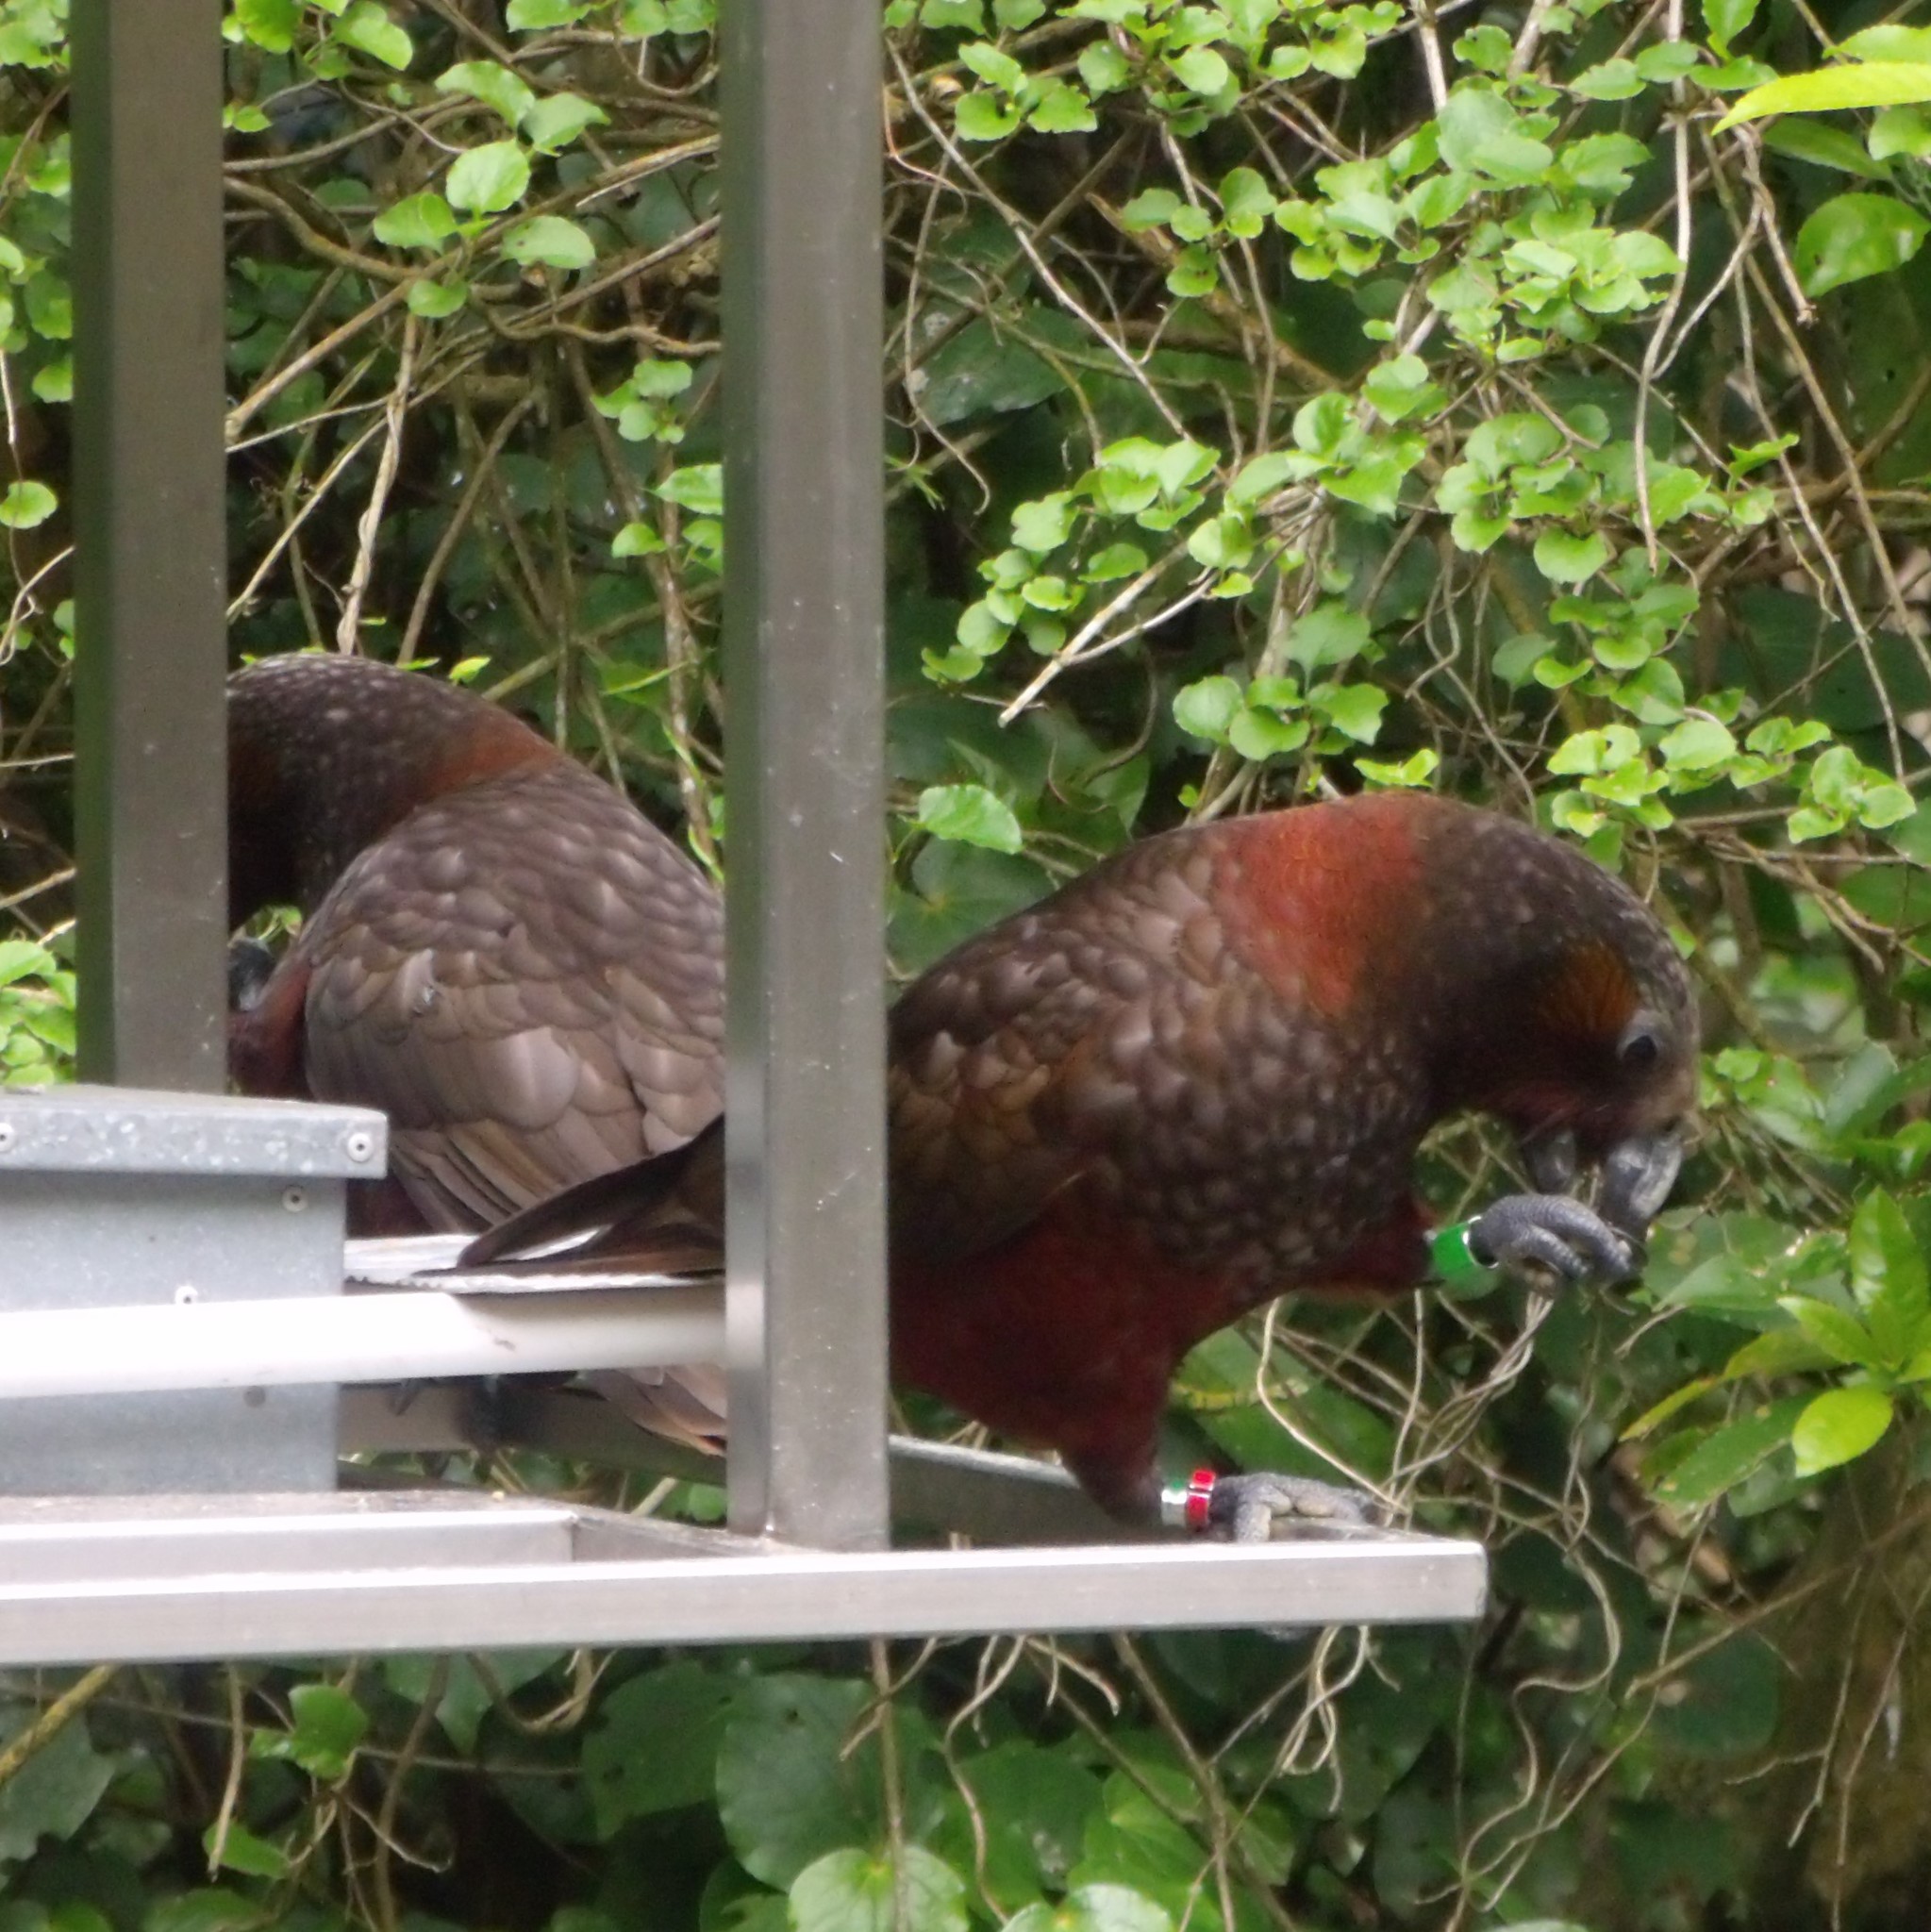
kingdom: Animalia
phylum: Chordata
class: Aves
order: Psittaciformes
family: Psittacidae
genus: Nestor
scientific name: Nestor meridionalis
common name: New zealand kaka
